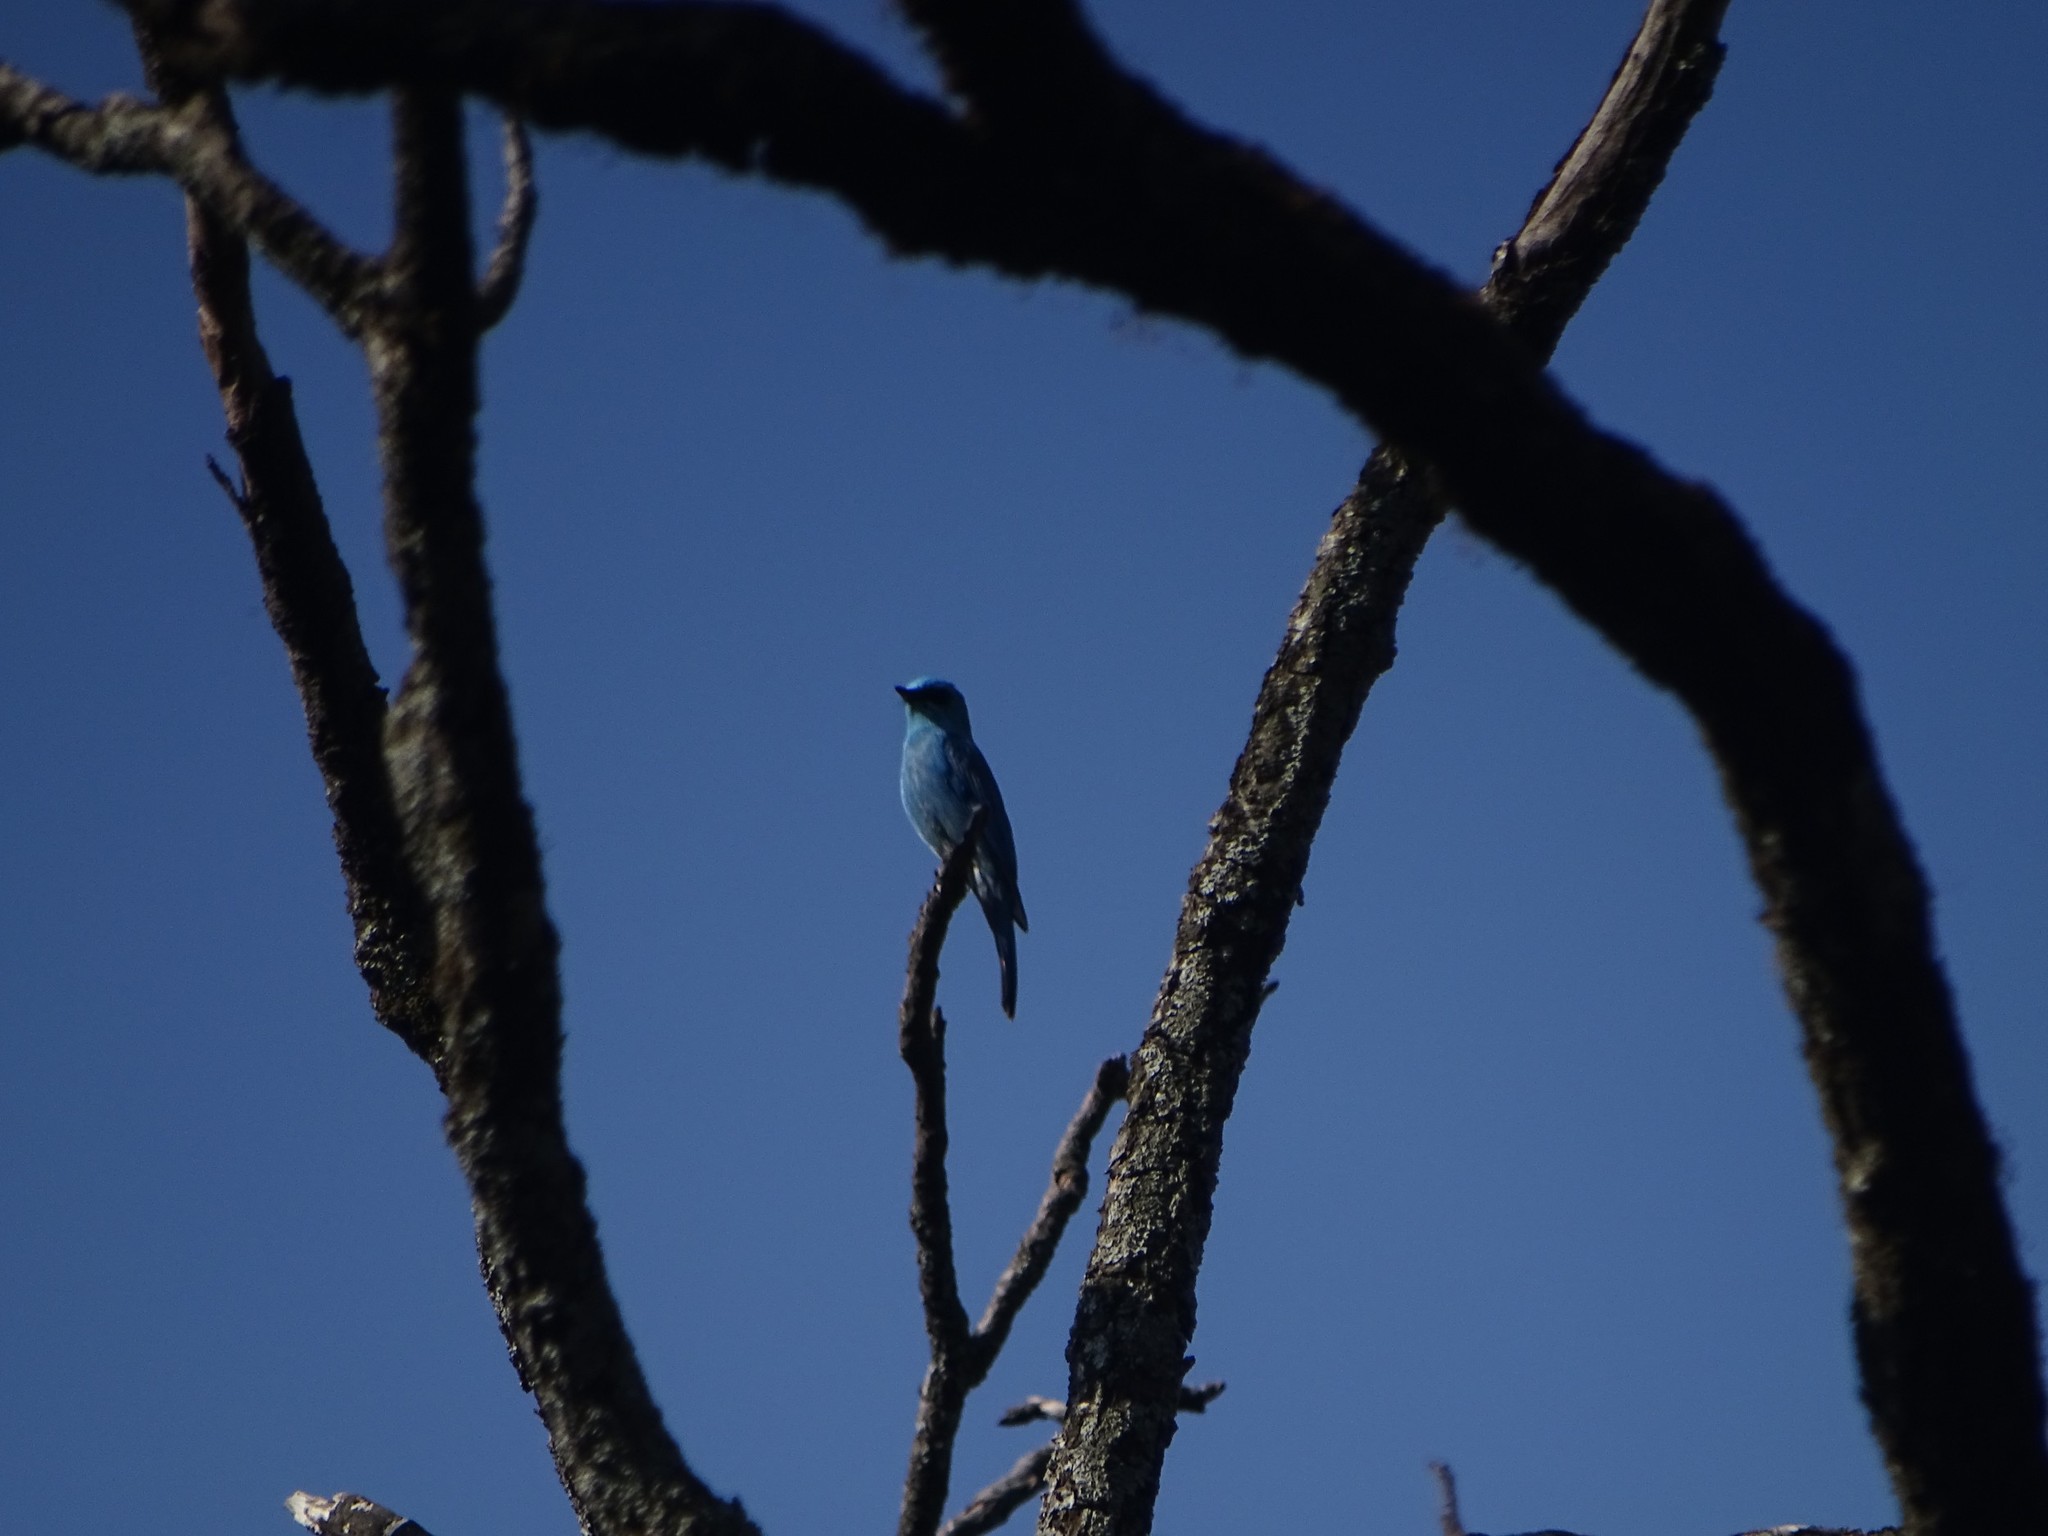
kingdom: Animalia
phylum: Chordata
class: Aves
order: Passeriformes
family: Muscicapidae
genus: Eumyias
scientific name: Eumyias thalassinus
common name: Verditer flycatcher
